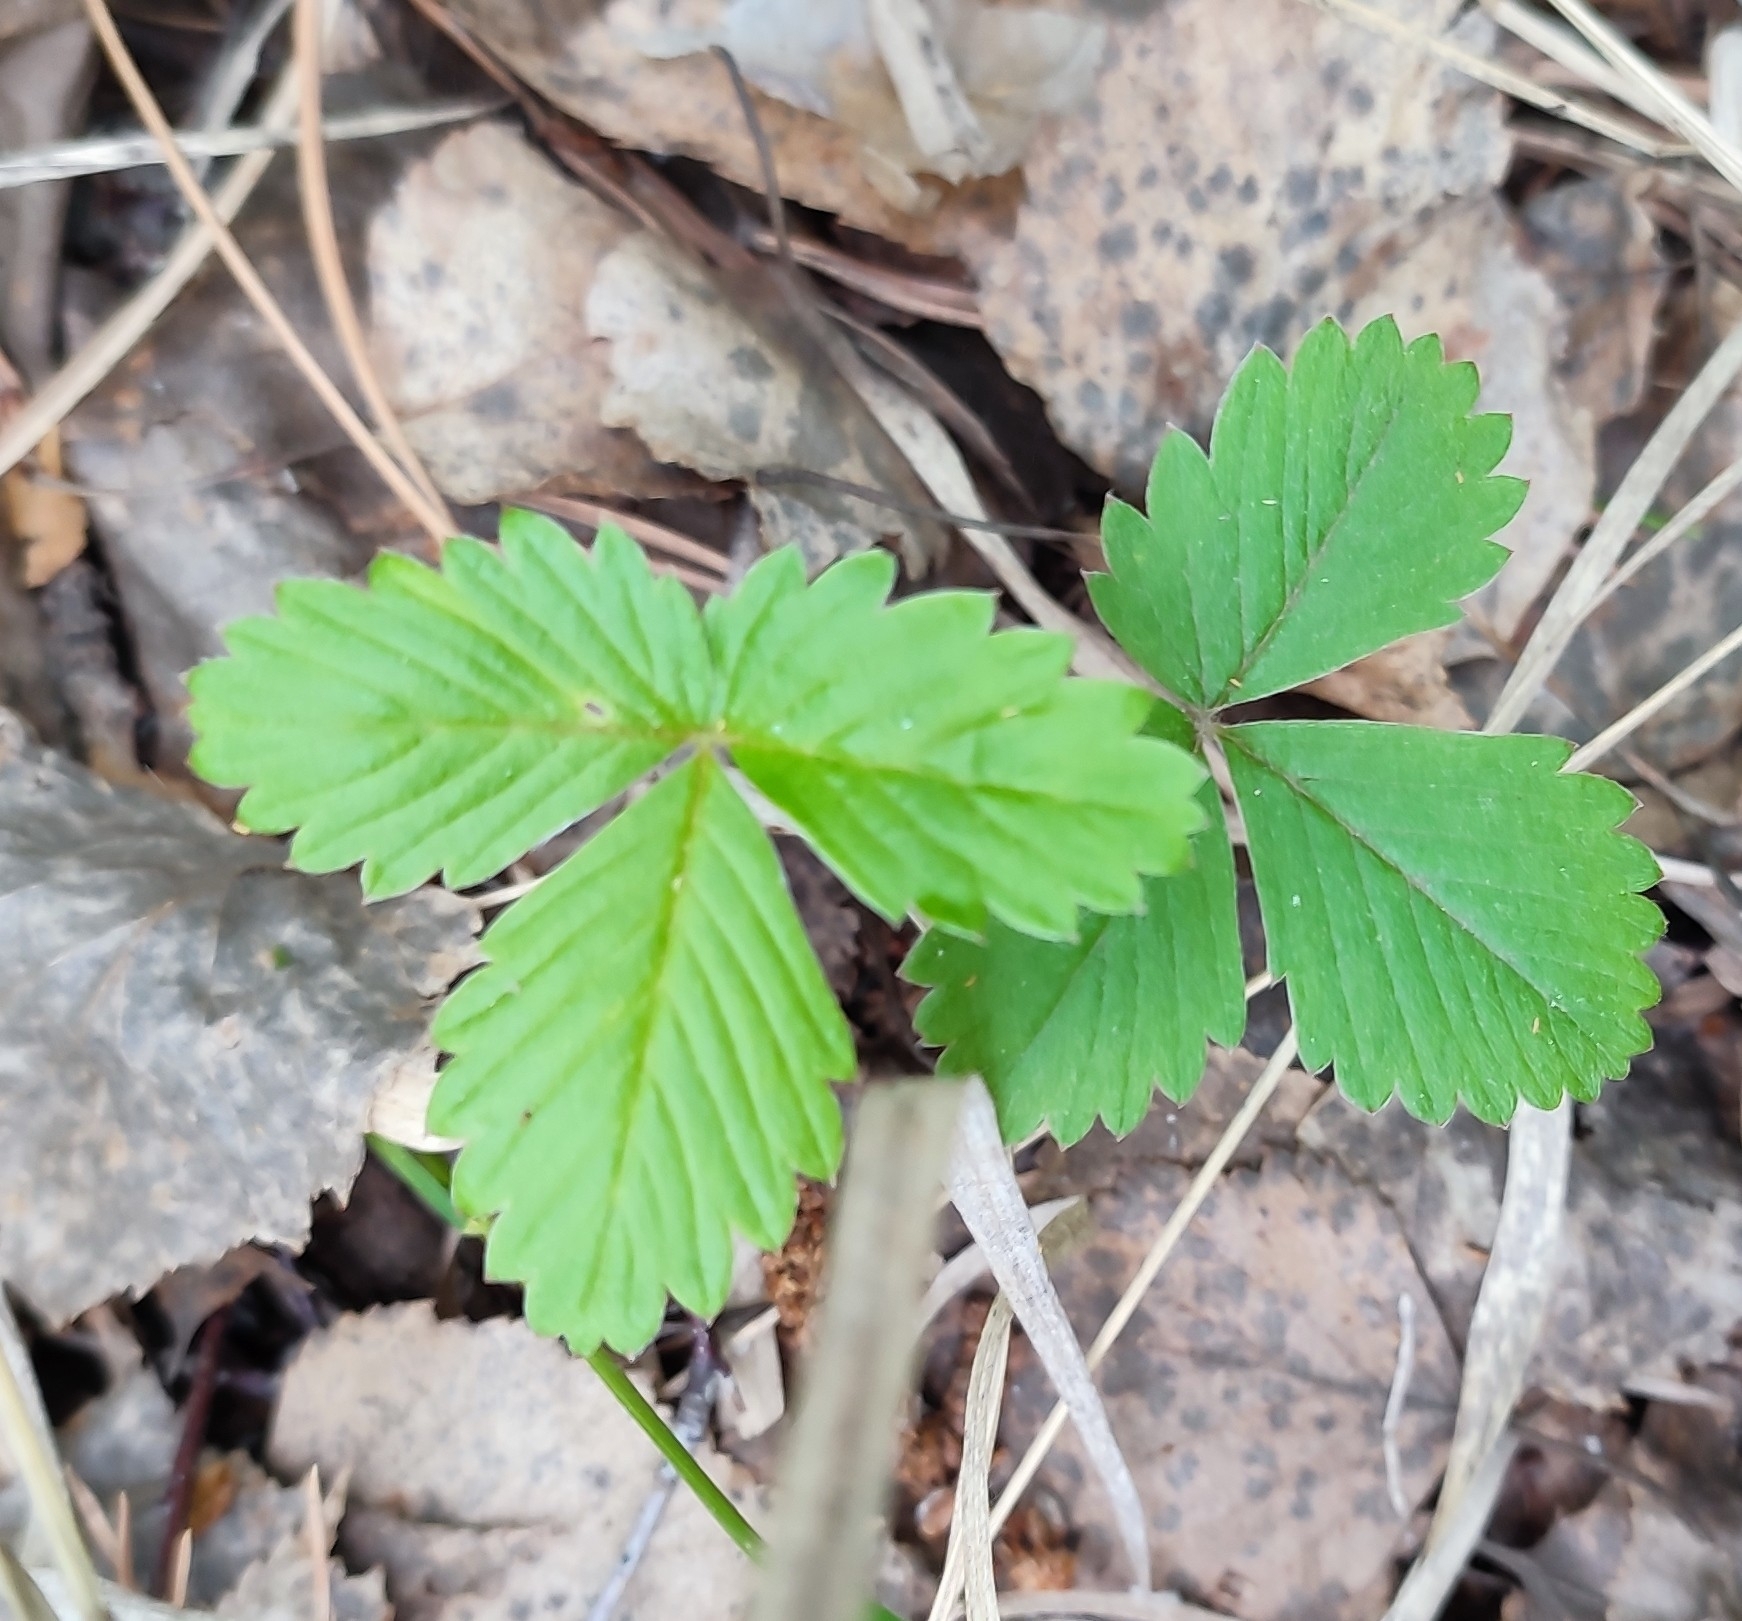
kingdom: Plantae
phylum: Tracheophyta
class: Magnoliopsida
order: Rosales
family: Rosaceae
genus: Fragaria
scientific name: Fragaria vesca
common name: Wild strawberry
